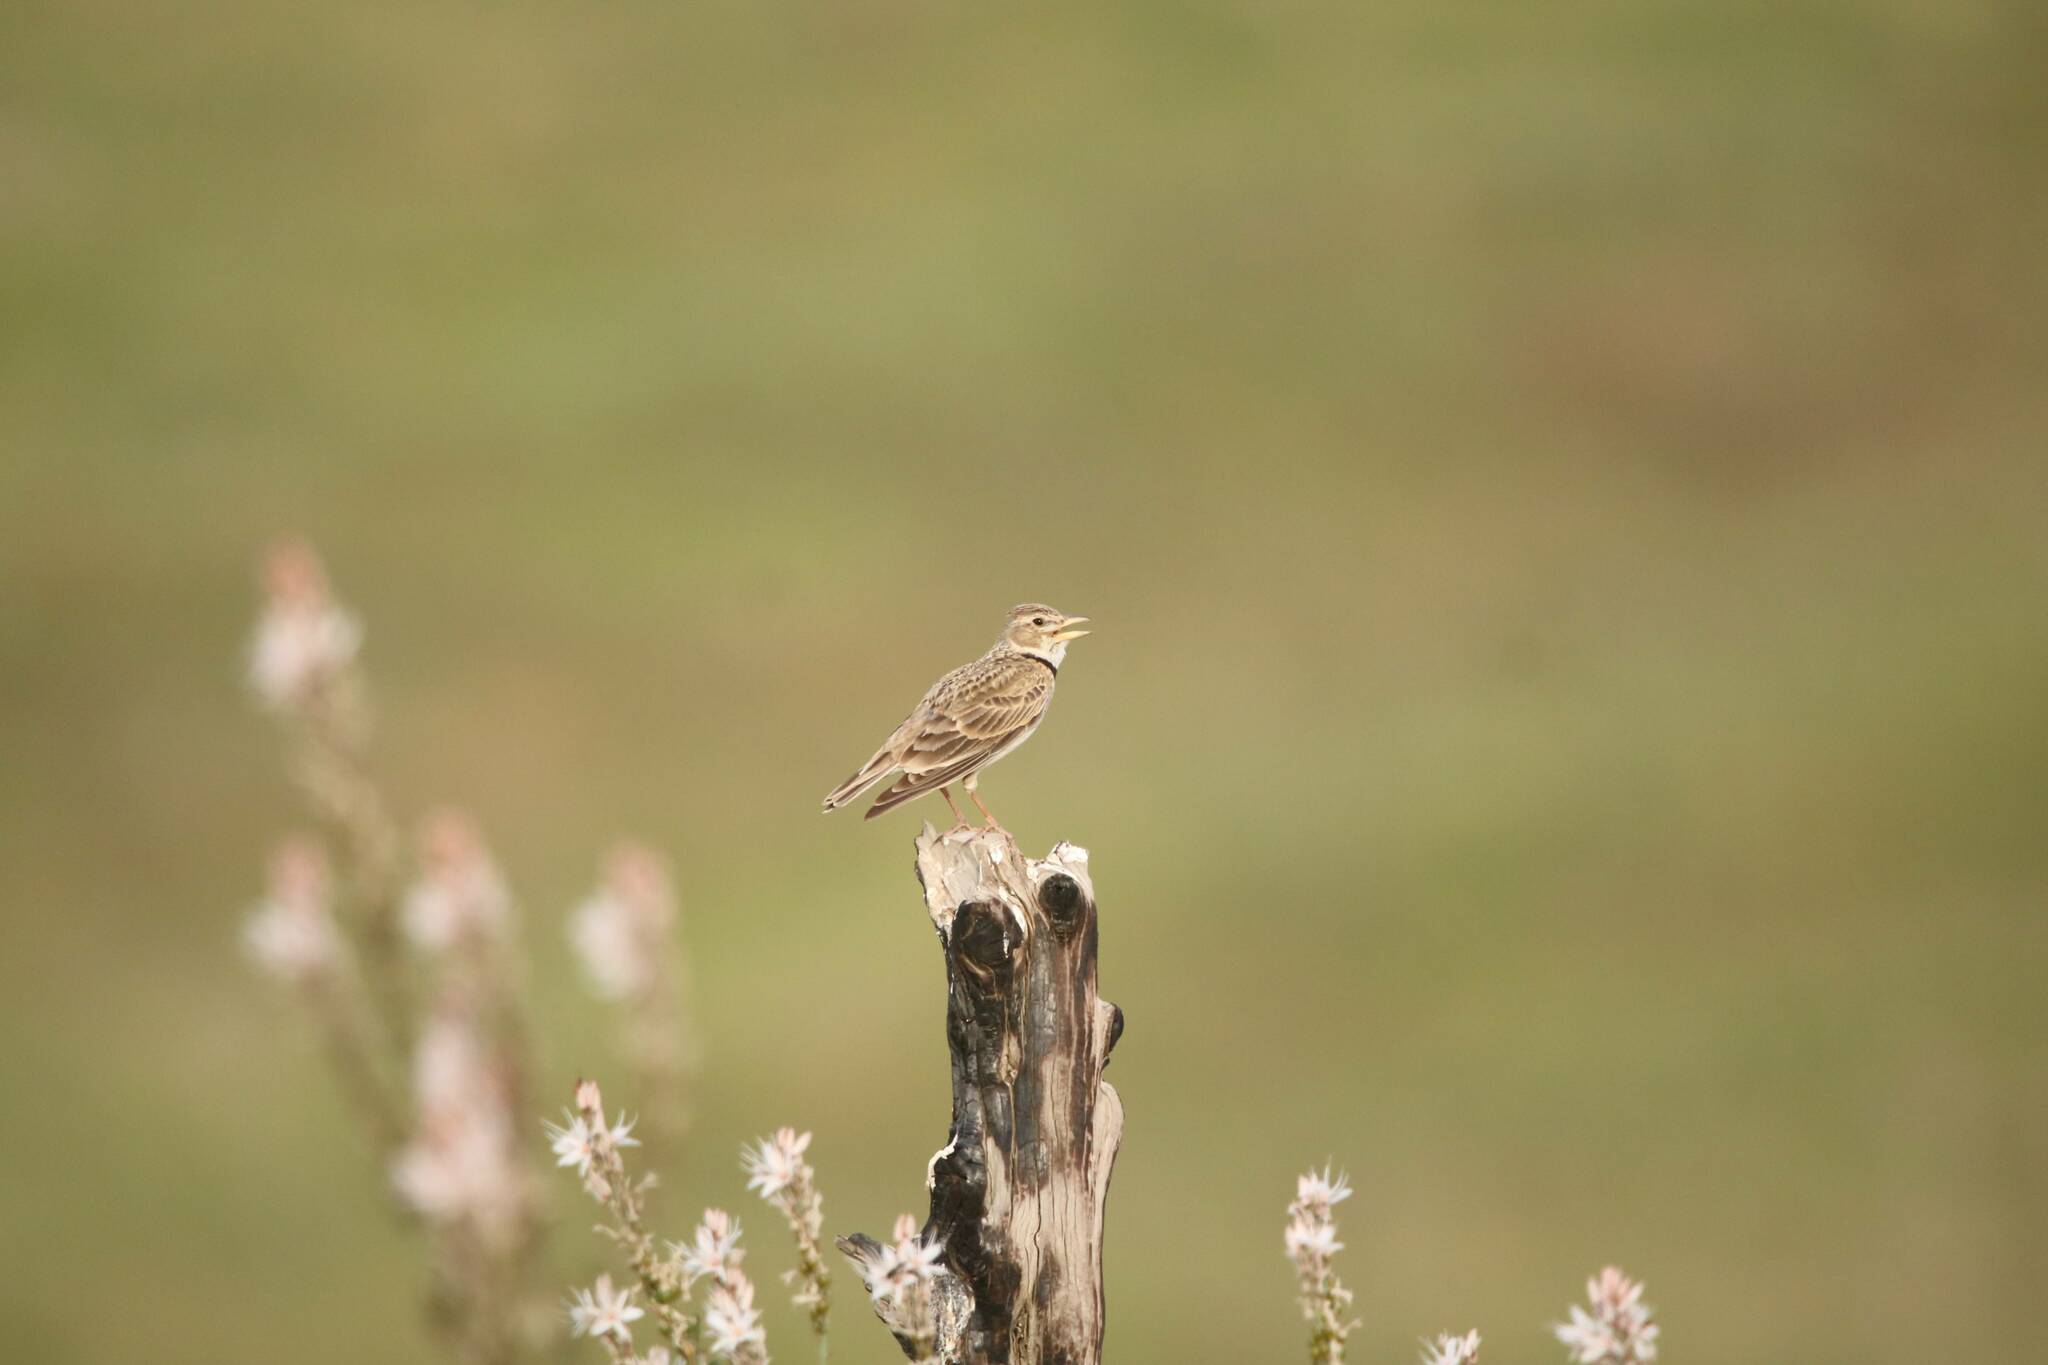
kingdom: Animalia
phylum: Chordata
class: Aves
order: Passeriformes
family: Alaudidae
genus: Melanocorypha
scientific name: Melanocorypha calandra
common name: Calandra lark
